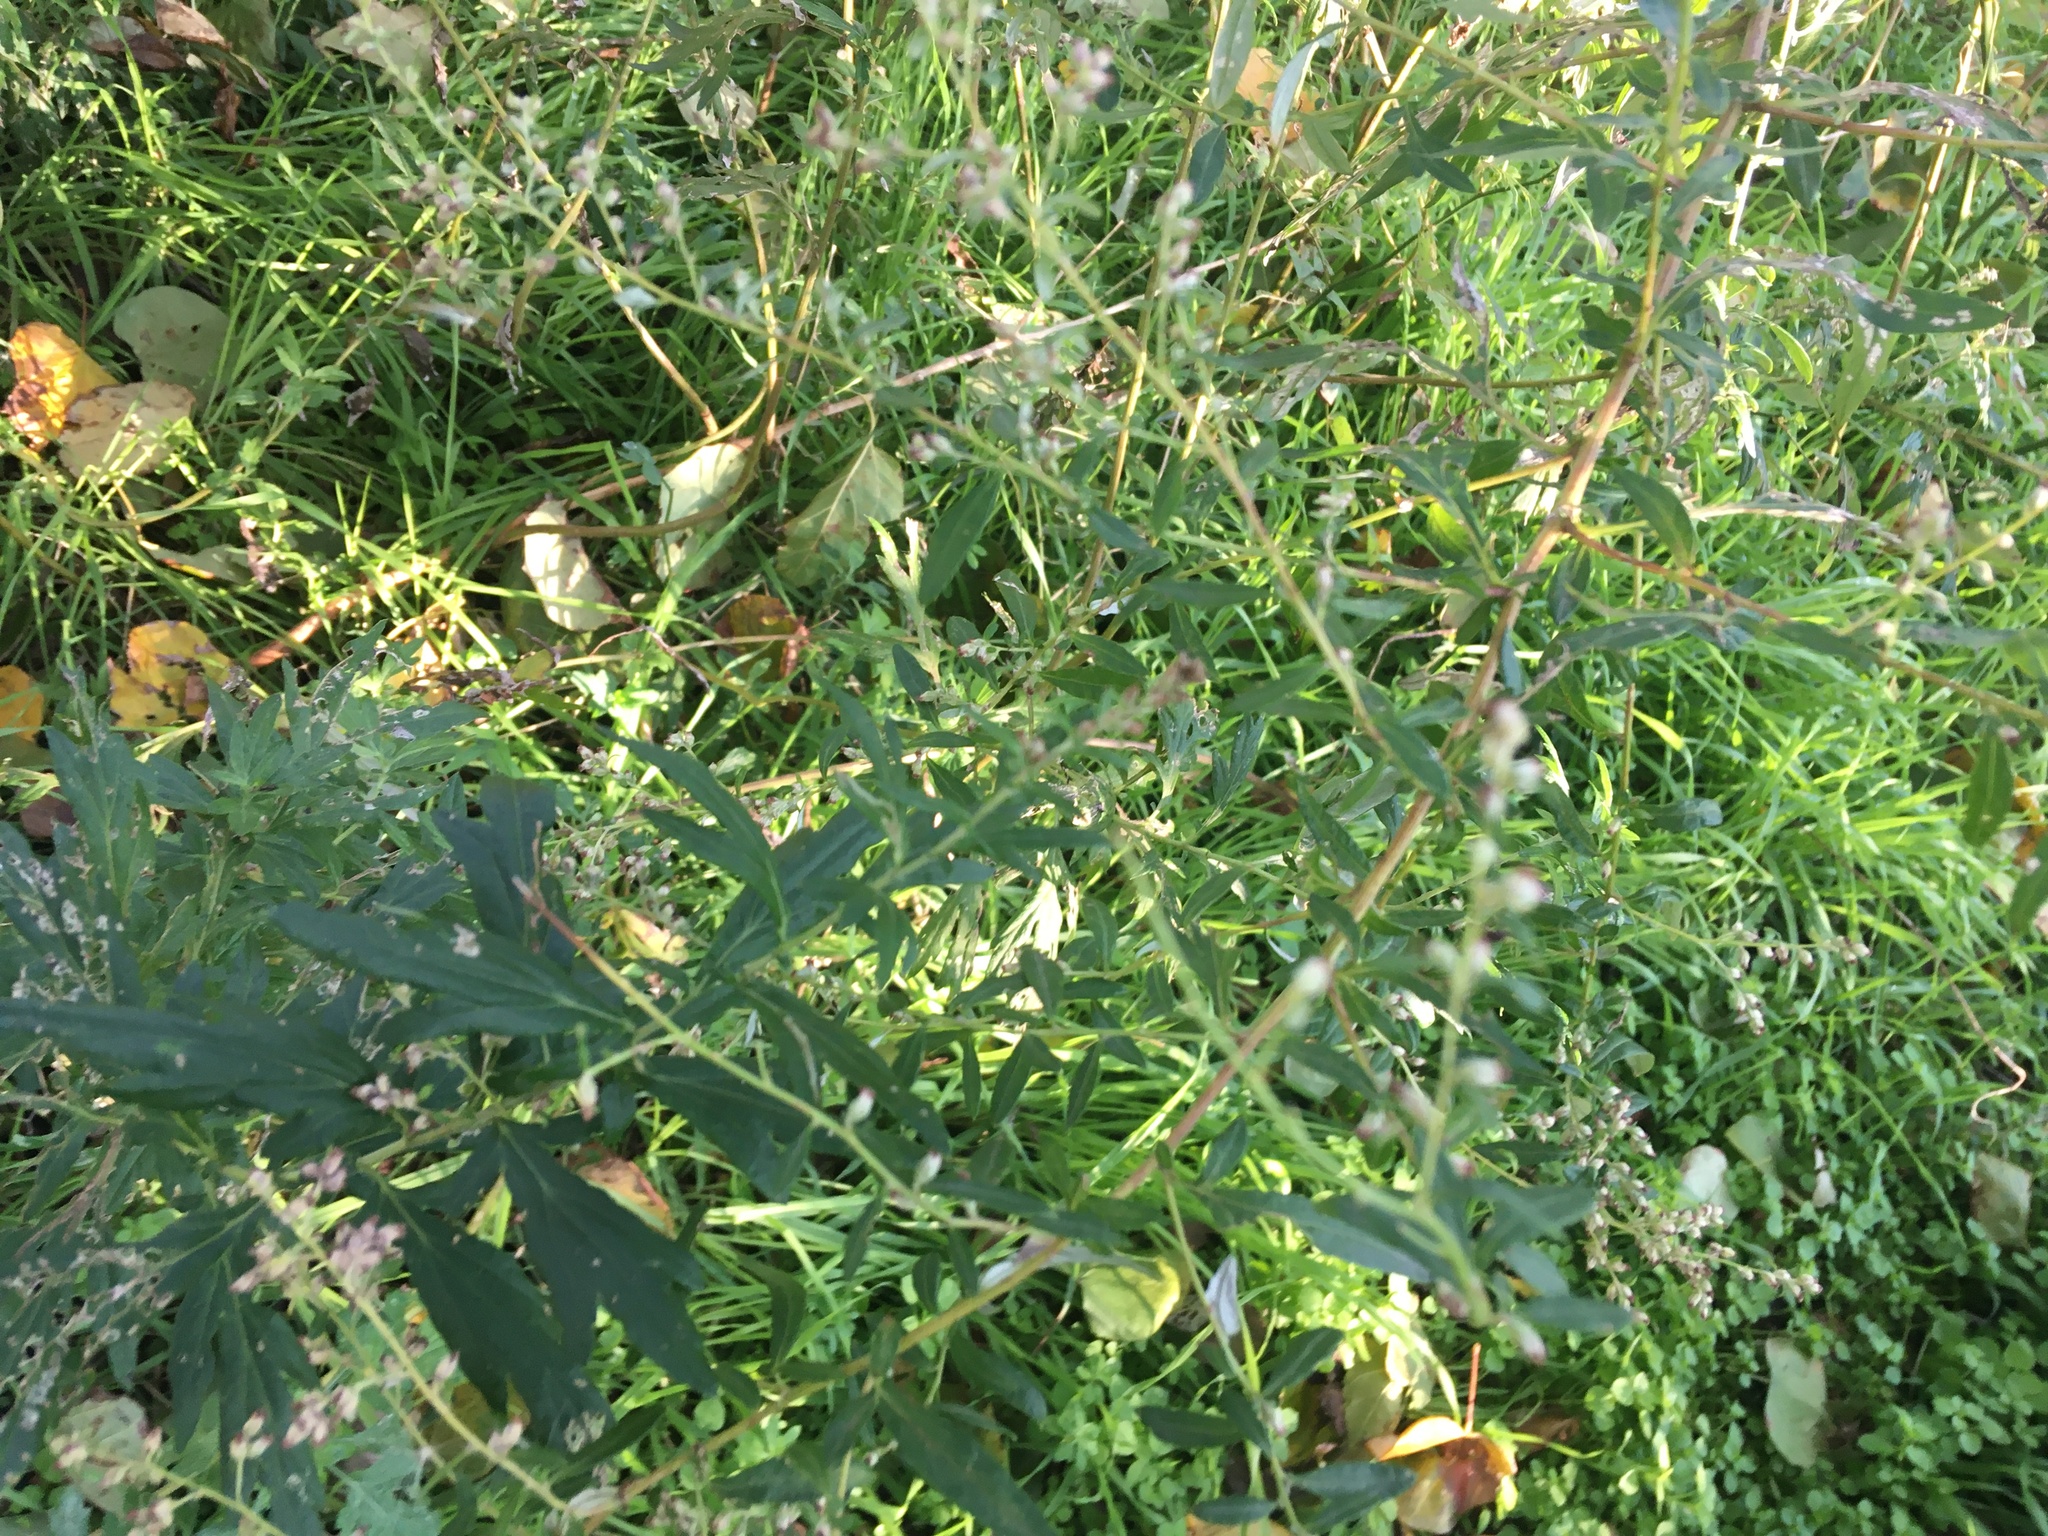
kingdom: Plantae
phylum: Tracheophyta
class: Magnoliopsida
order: Asterales
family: Asteraceae
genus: Artemisia
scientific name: Artemisia vulgaris
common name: Mugwort
